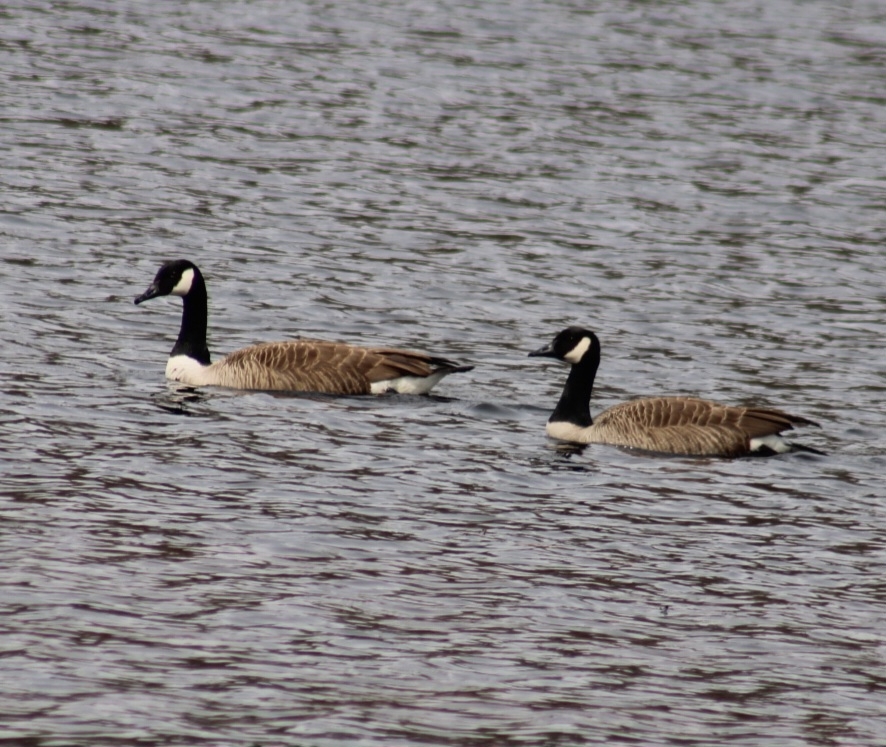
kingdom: Animalia
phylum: Chordata
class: Aves
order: Anseriformes
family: Anatidae
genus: Branta
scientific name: Branta canadensis
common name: Canada goose
